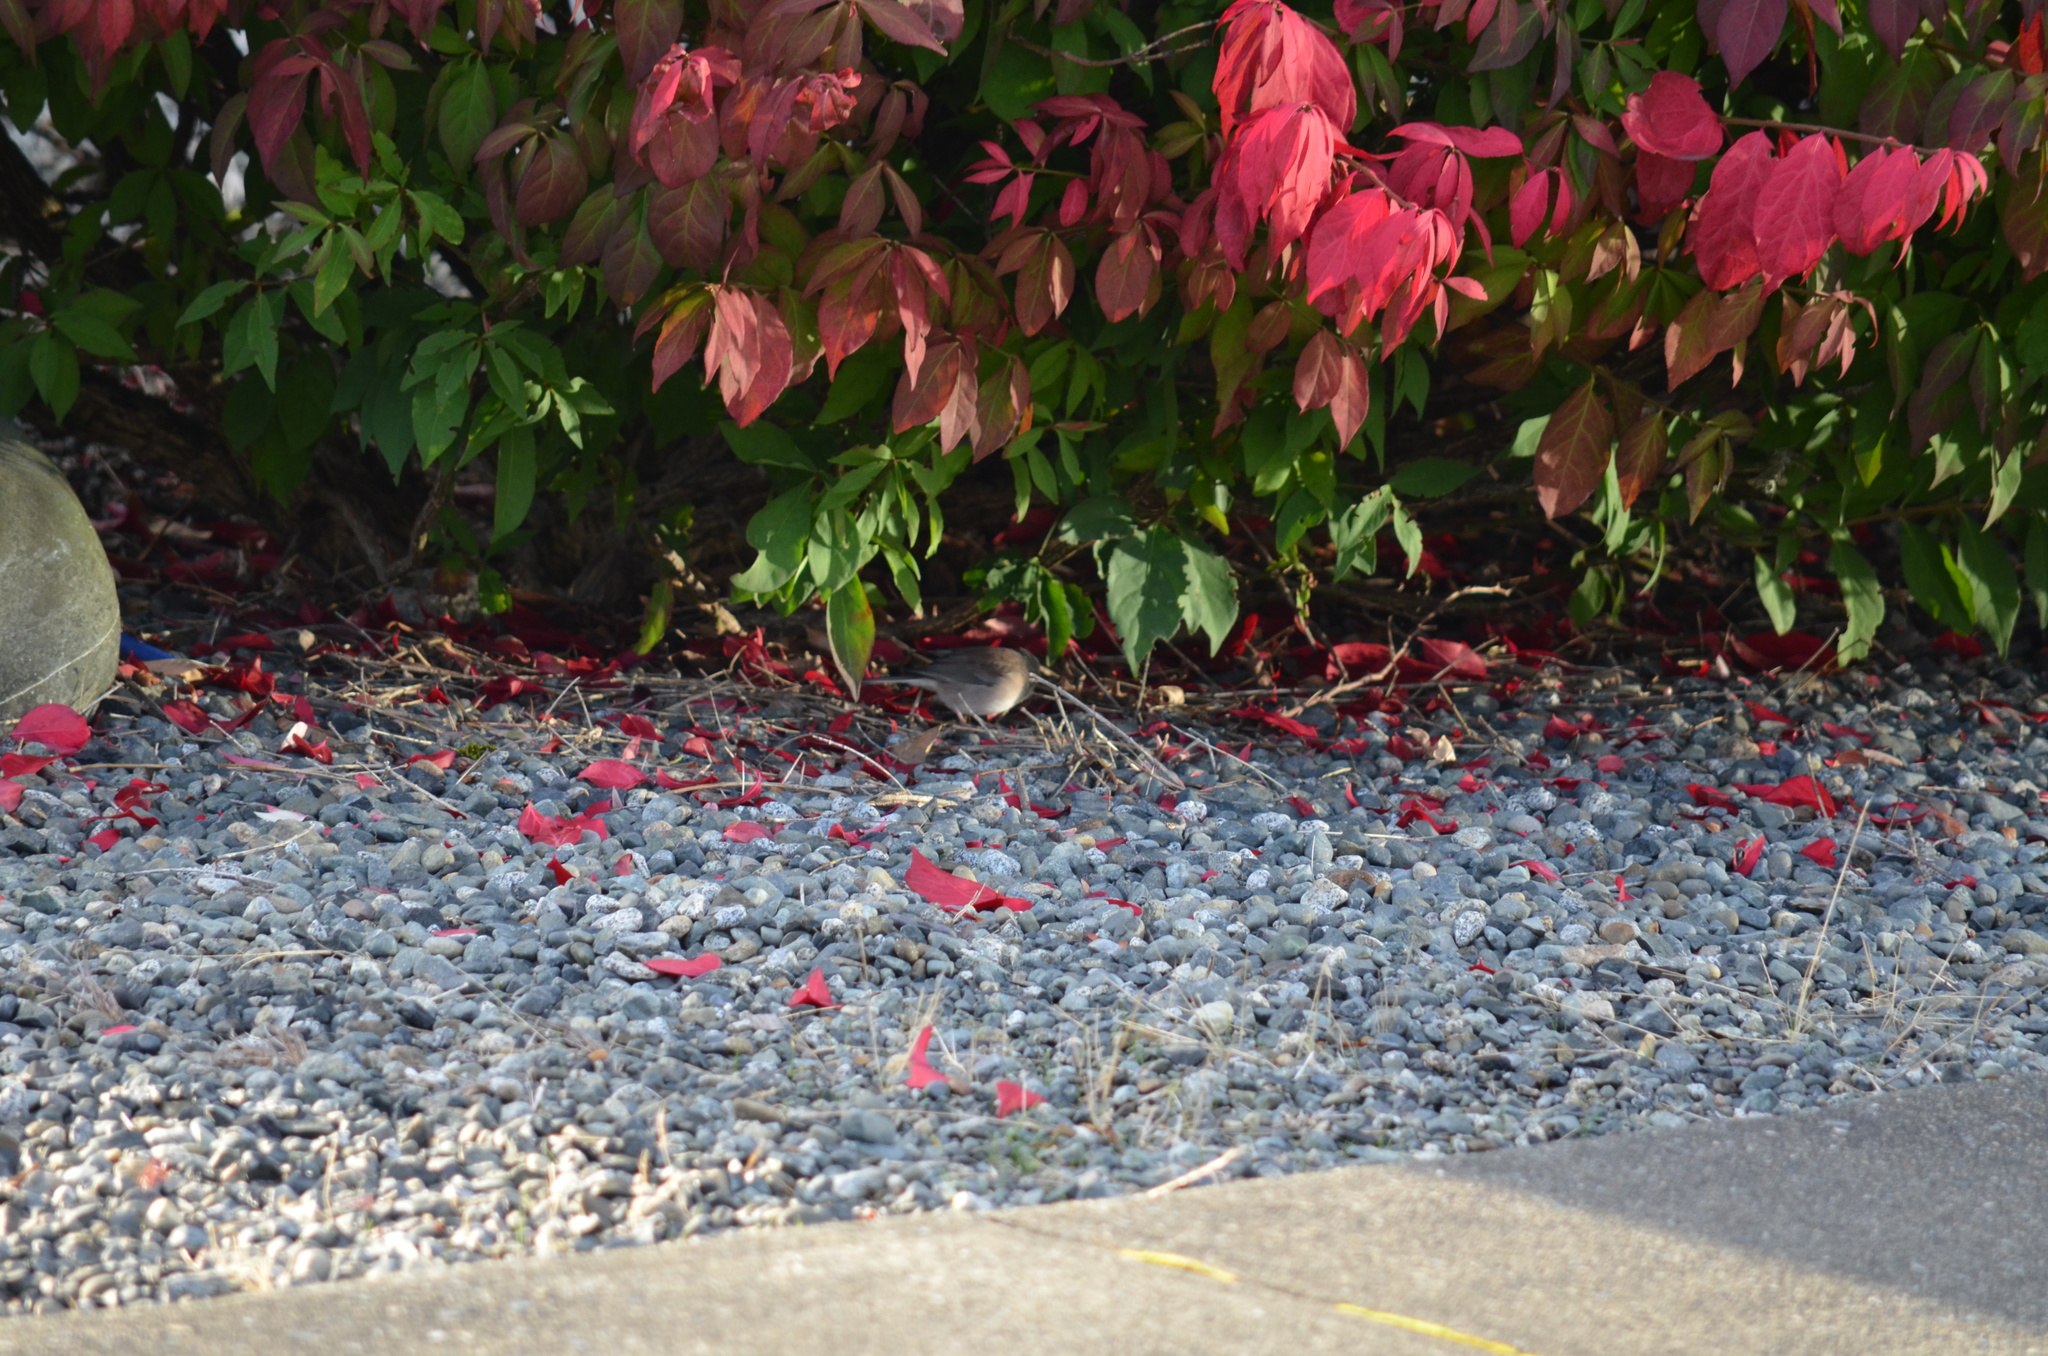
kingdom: Animalia
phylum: Chordata
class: Aves
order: Passeriformes
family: Passerellidae
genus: Junco
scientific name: Junco hyemalis
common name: Dark-eyed junco
